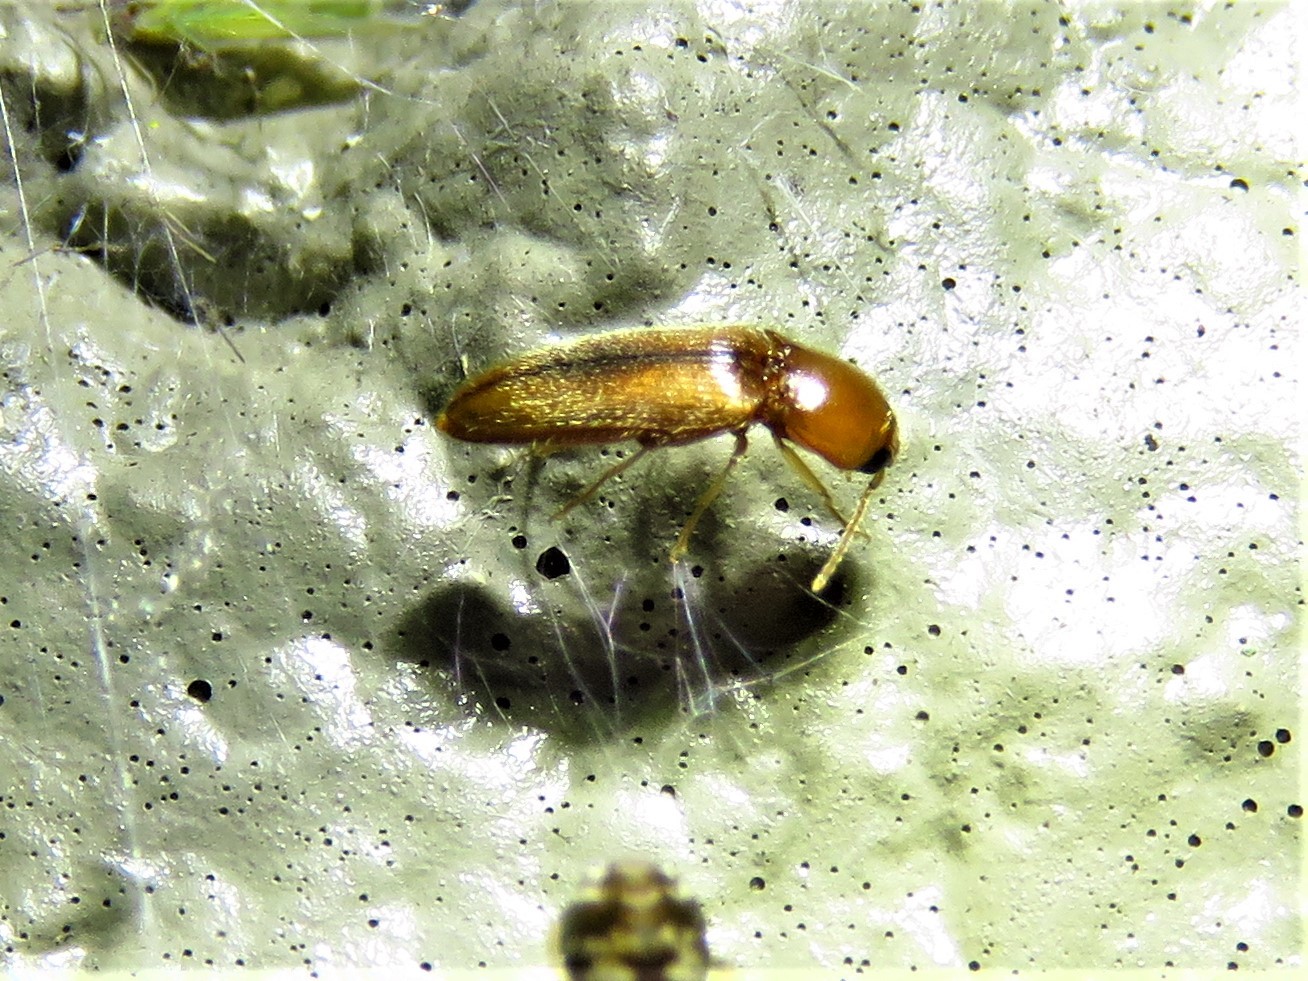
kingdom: Animalia
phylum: Arthropoda
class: Insecta
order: Coleoptera
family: Elateridae
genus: Glyphonyx
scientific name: Glyphonyx
